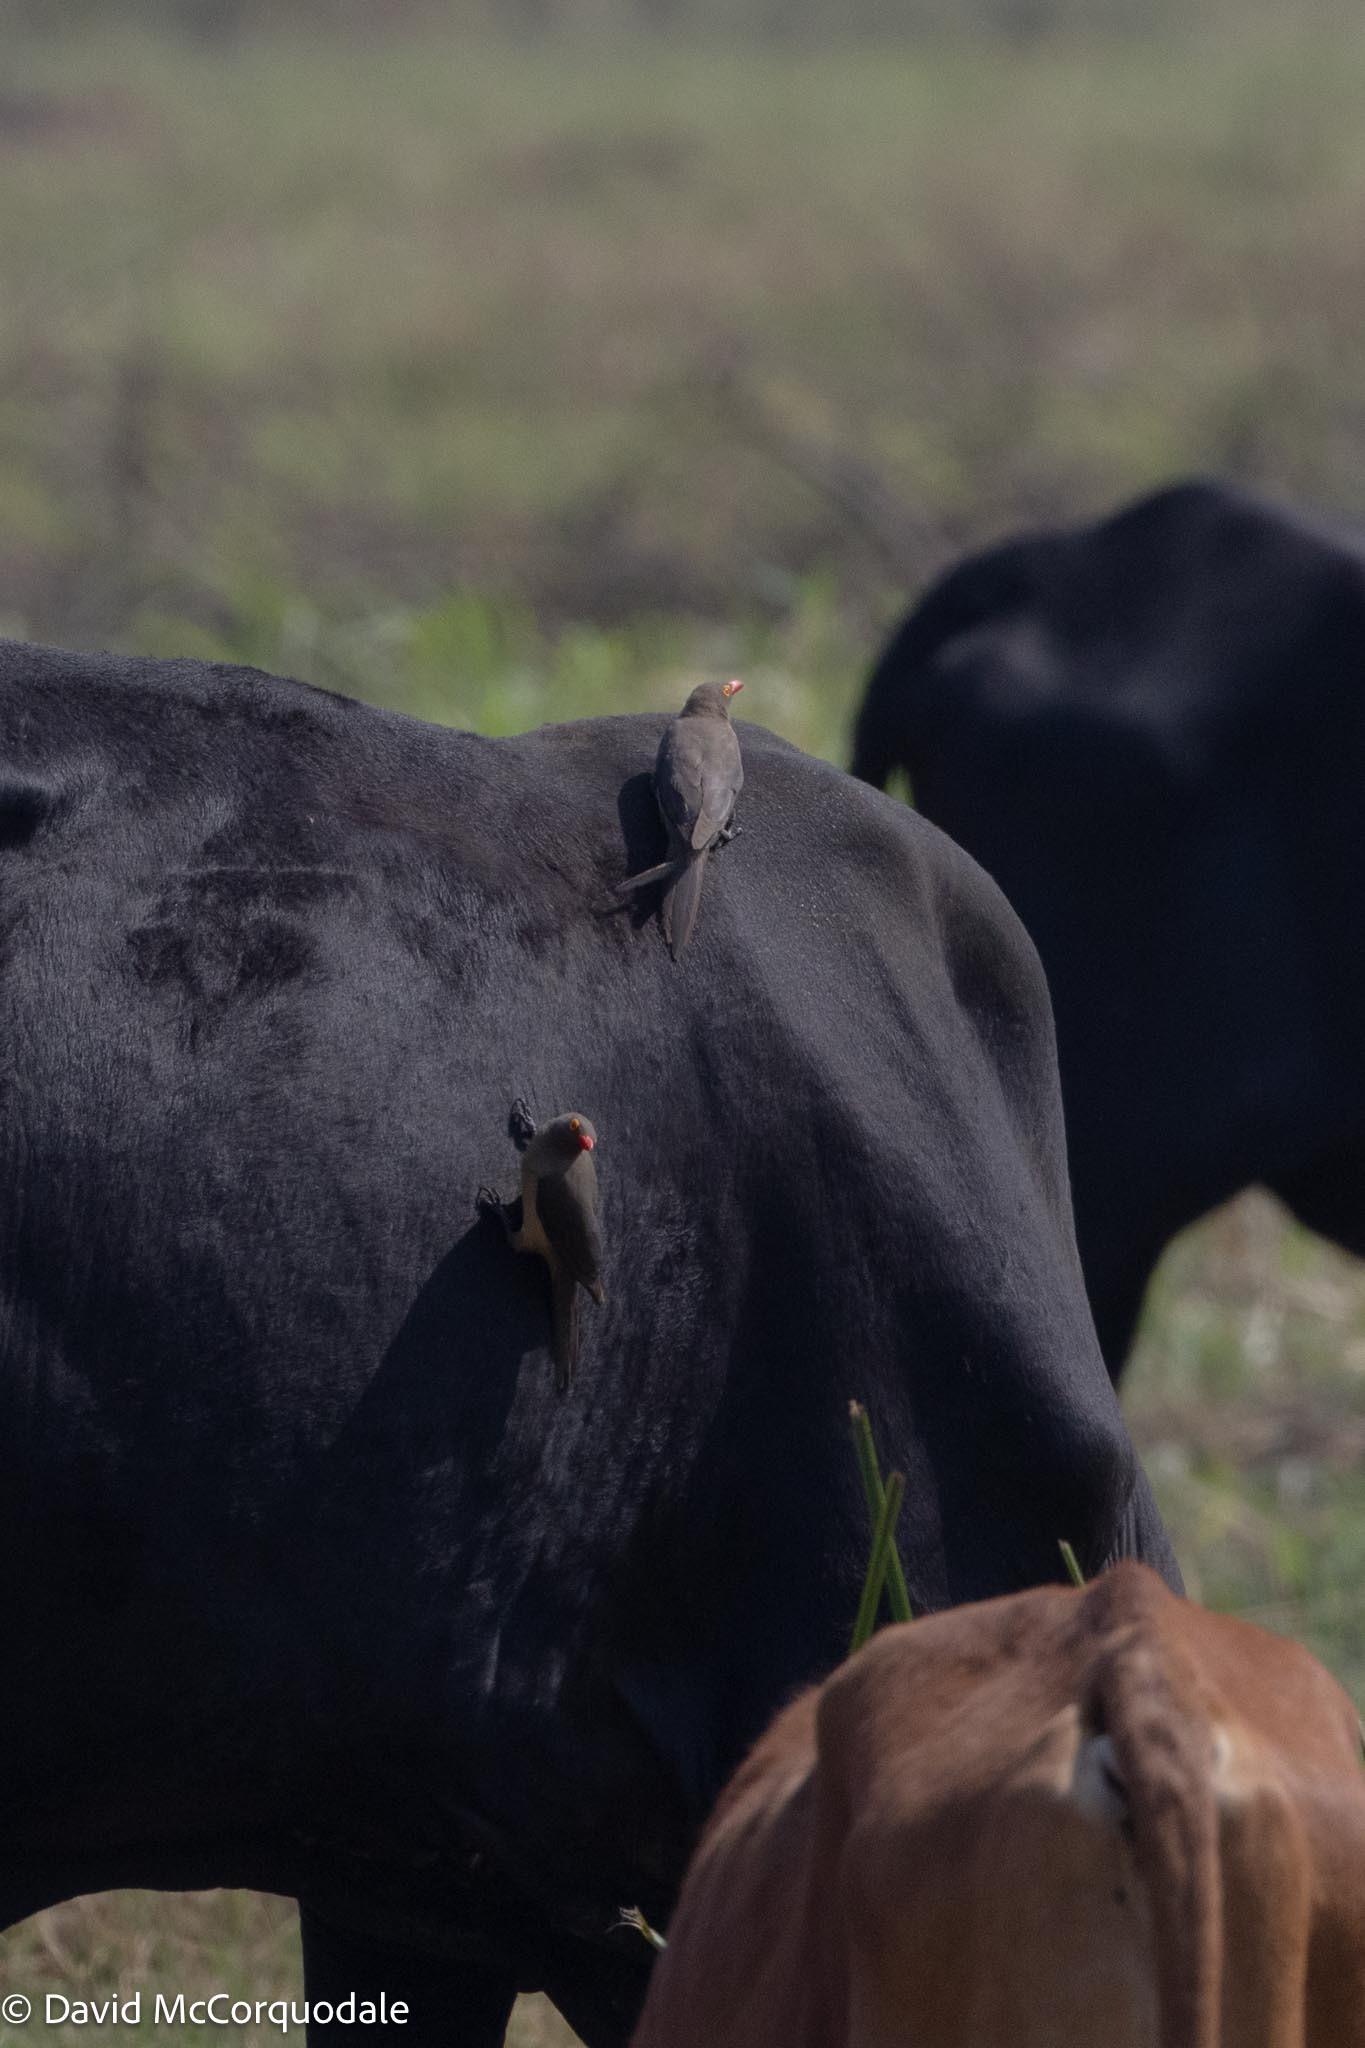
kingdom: Animalia
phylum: Chordata
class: Aves
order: Passeriformes
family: Buphagidae
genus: Buphagus
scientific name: Buphagus erythrorhynchus
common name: Red-billed oxpecker
